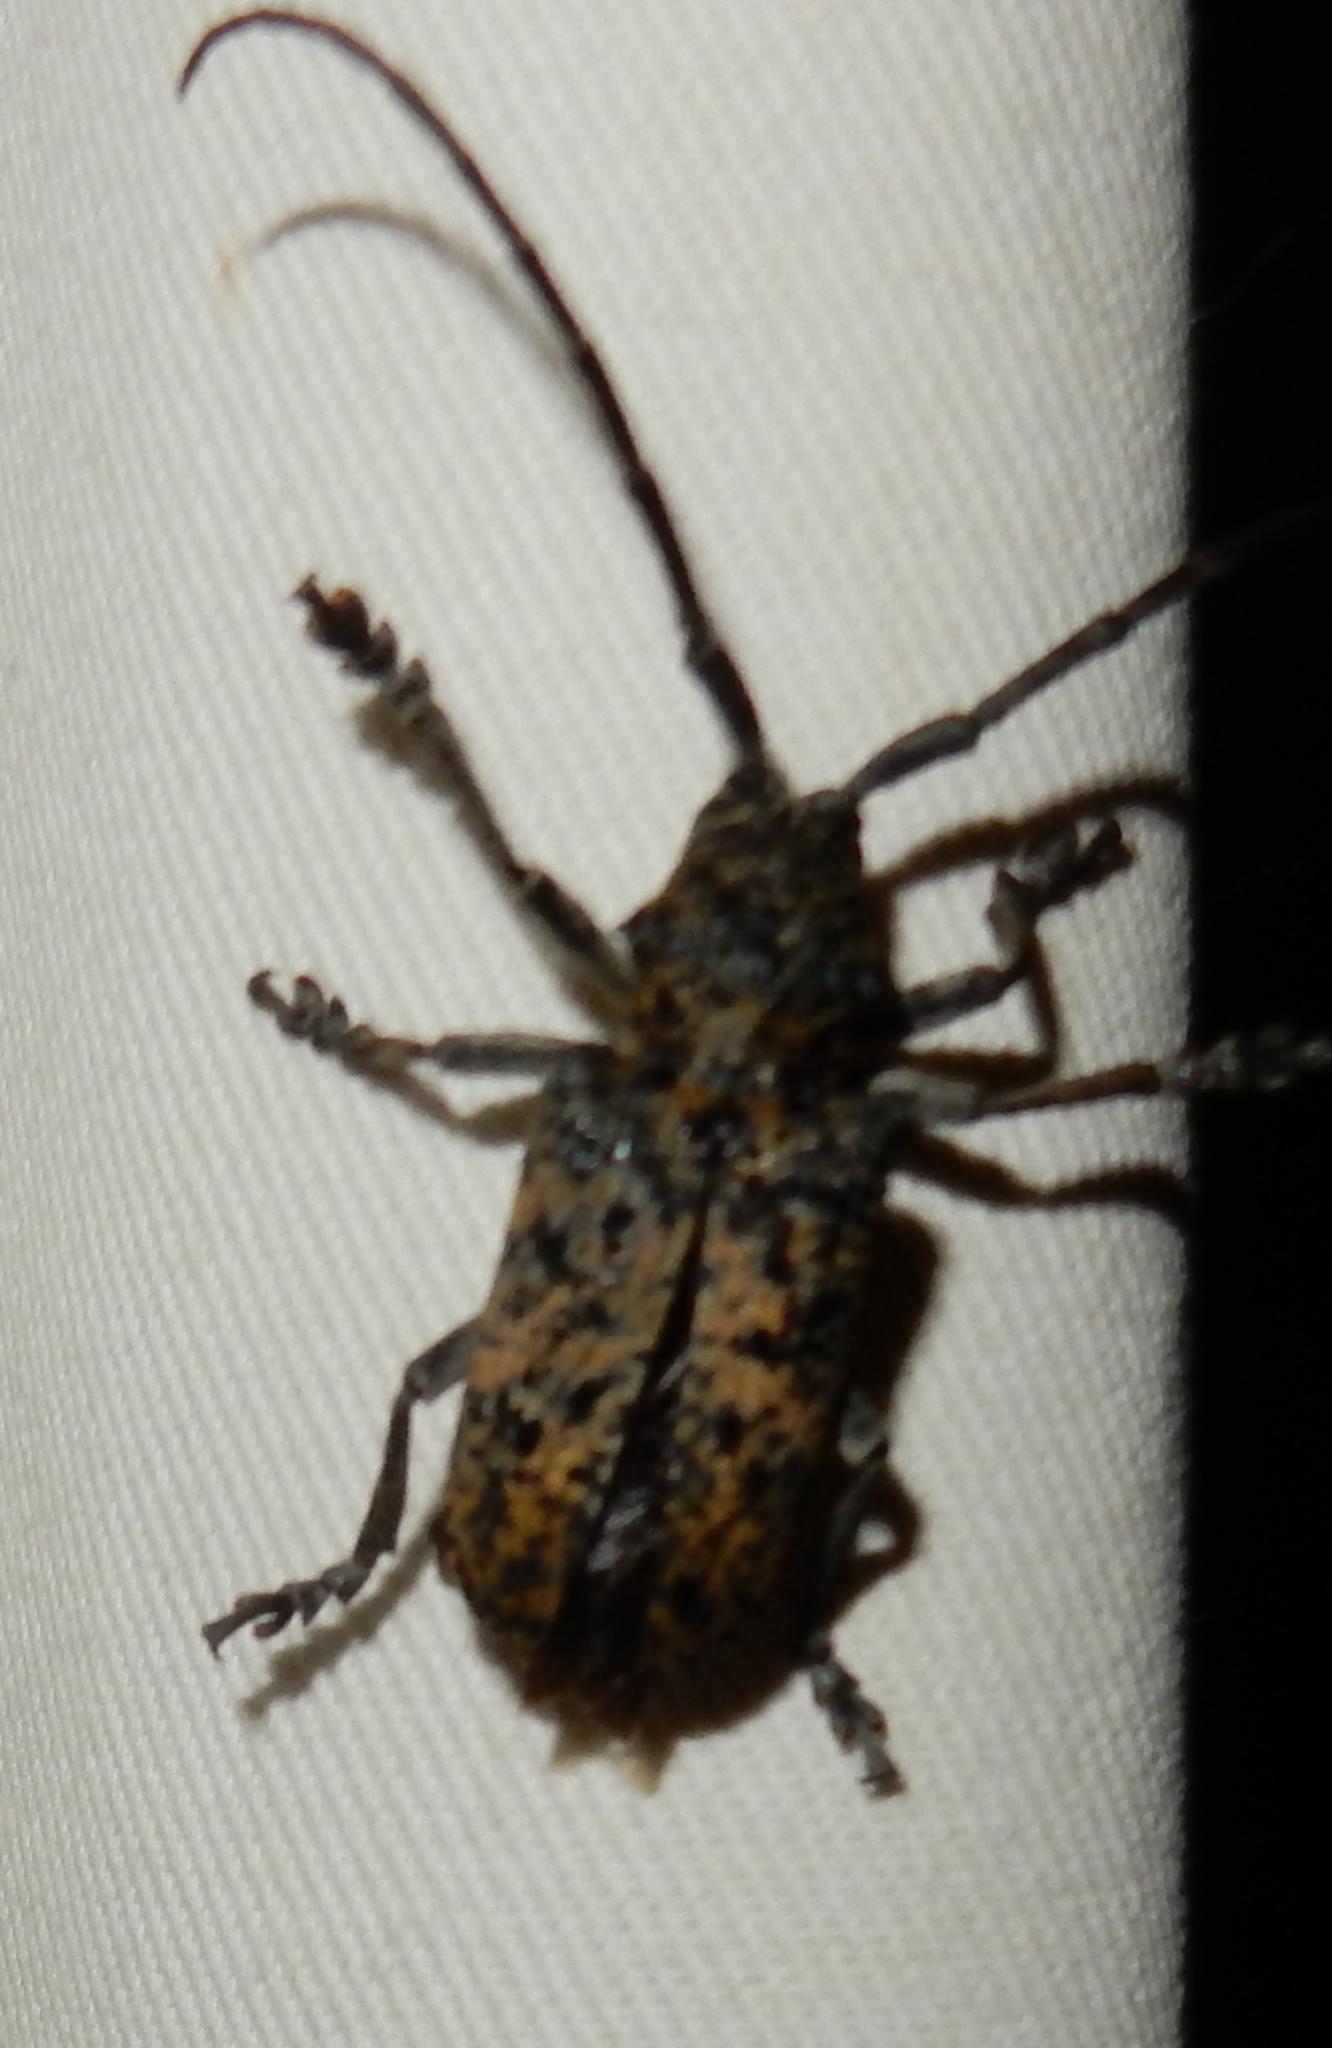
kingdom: Animalia
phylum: Arthropoda
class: Insecta
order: Coleoptera
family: Cerambycidae
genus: Phryneta
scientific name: Phryneta spinator
